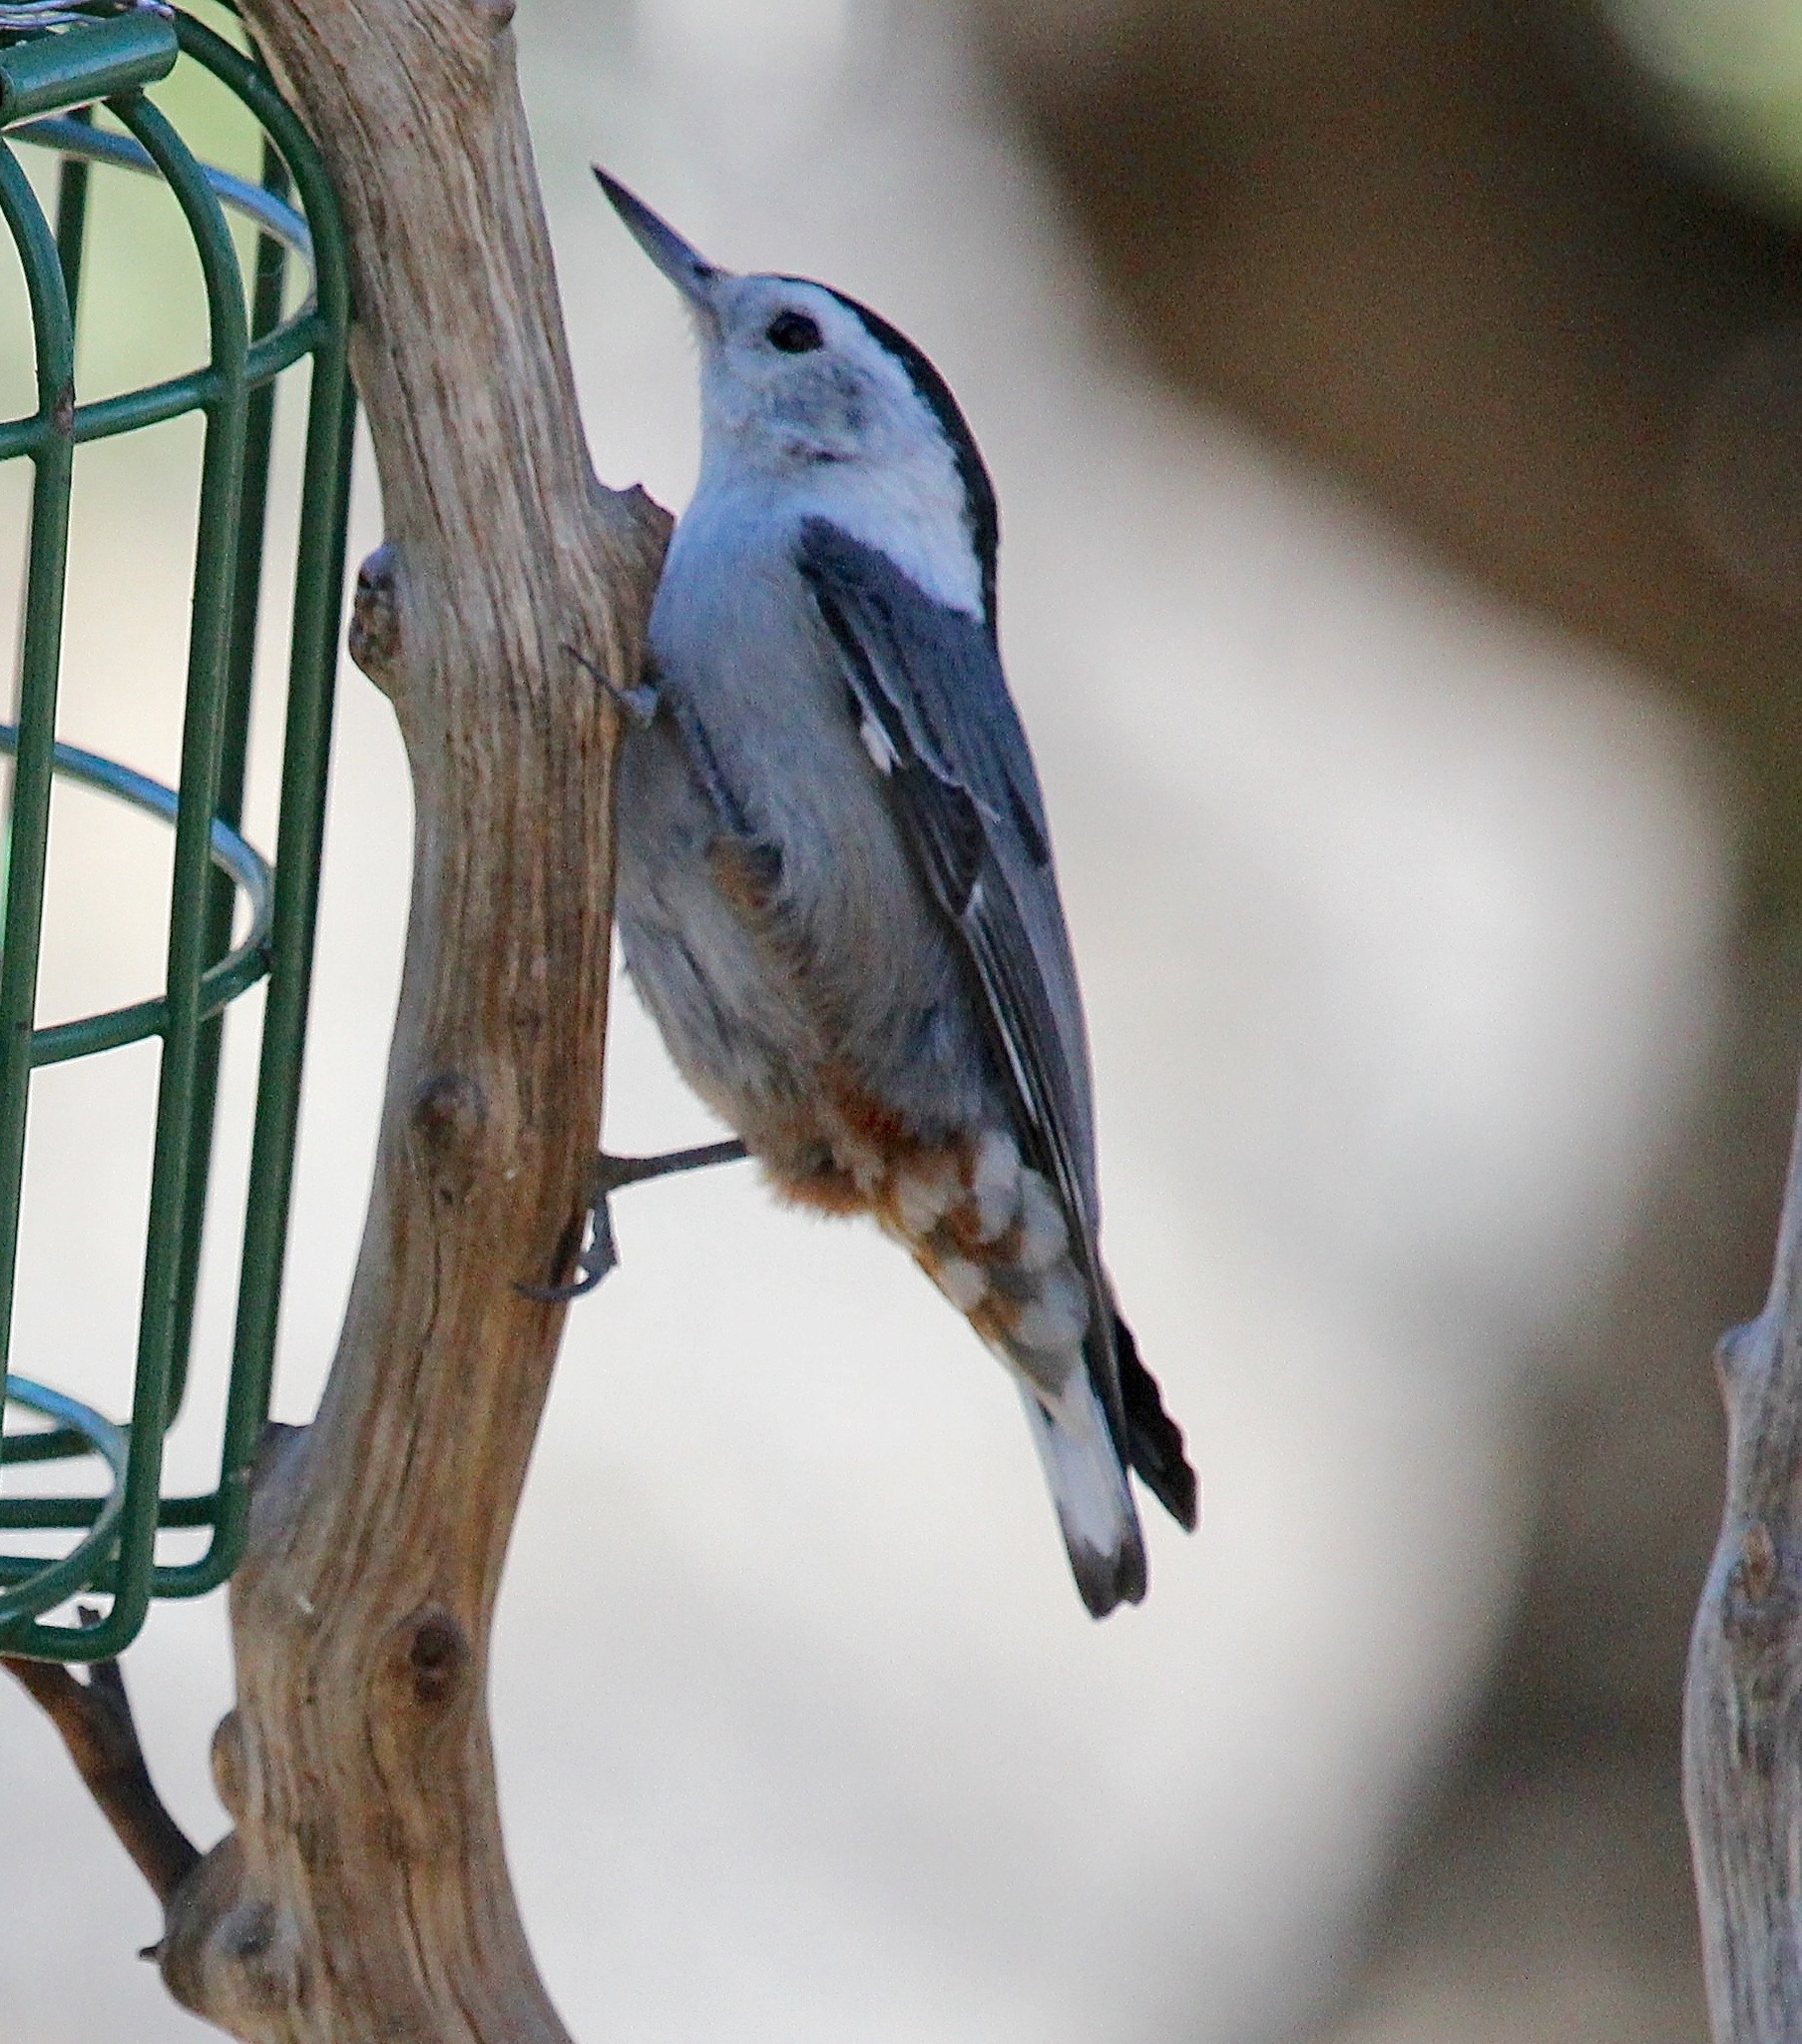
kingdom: Animalia
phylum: Chordata
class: Aves
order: Passeriformes
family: Sittidae
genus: Sitta
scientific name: Sitta carolinensis
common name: White-breasted nuthatch
